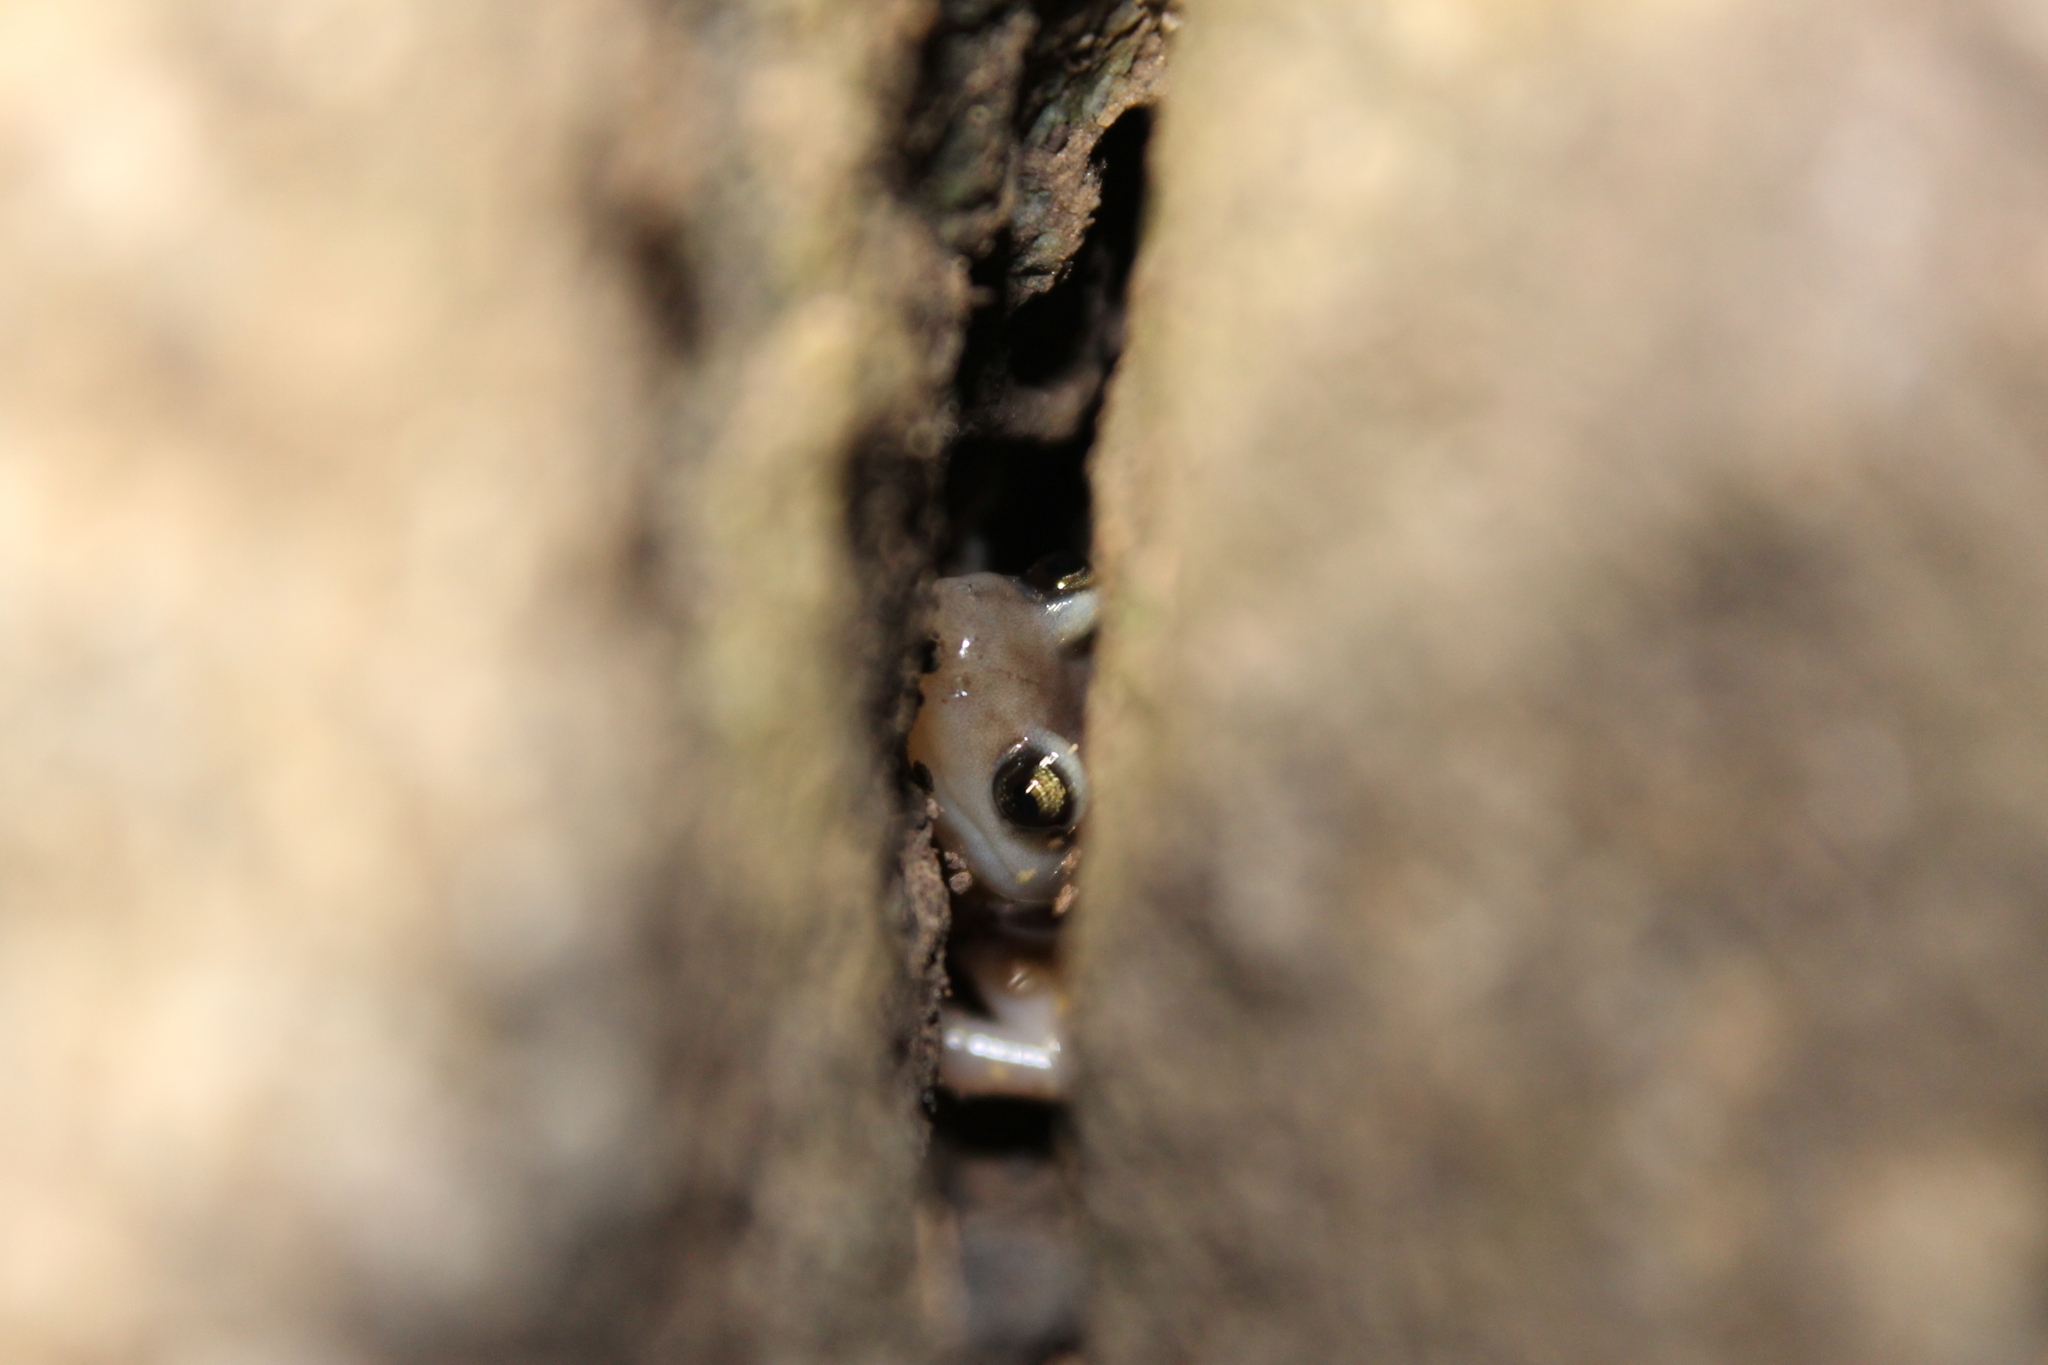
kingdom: Animalia
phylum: Chordata
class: Amphibia
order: Caudata
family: Plethodontidae
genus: Aneides
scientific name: Aneides lugubris
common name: Arboreal salamander
